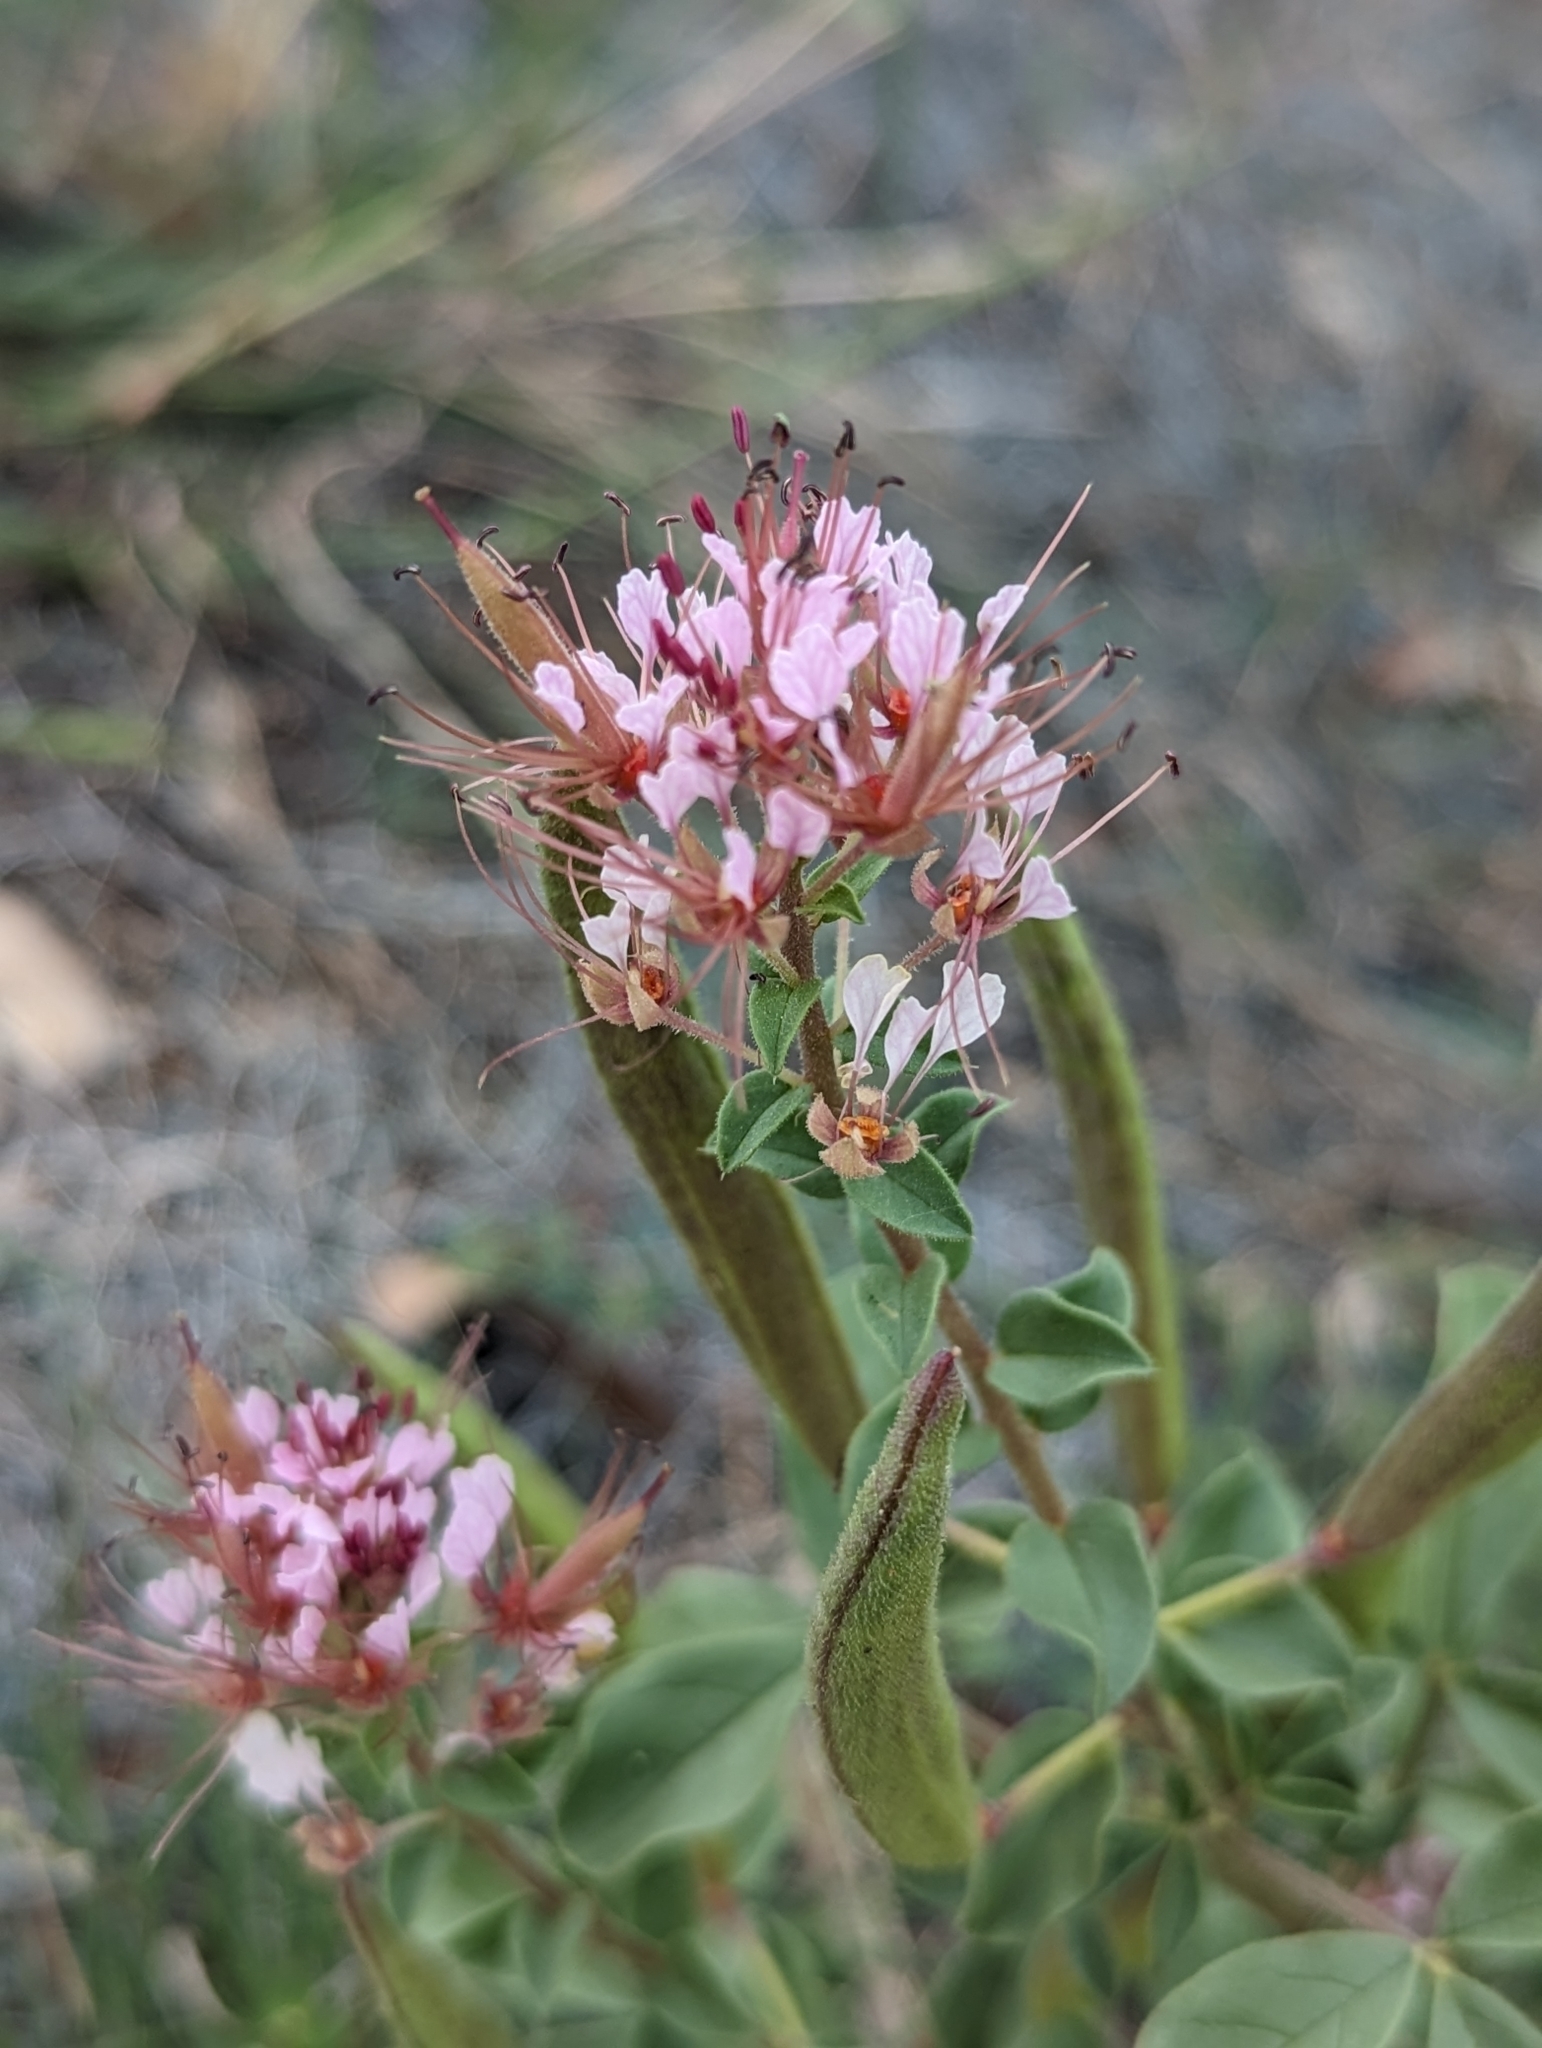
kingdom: Plantae
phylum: Tracheophyta
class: Magnoliopsida
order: Brassicales
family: Cleomaceae
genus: Polanisia
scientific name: Polanisia dodecandra
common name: Clammyweed
